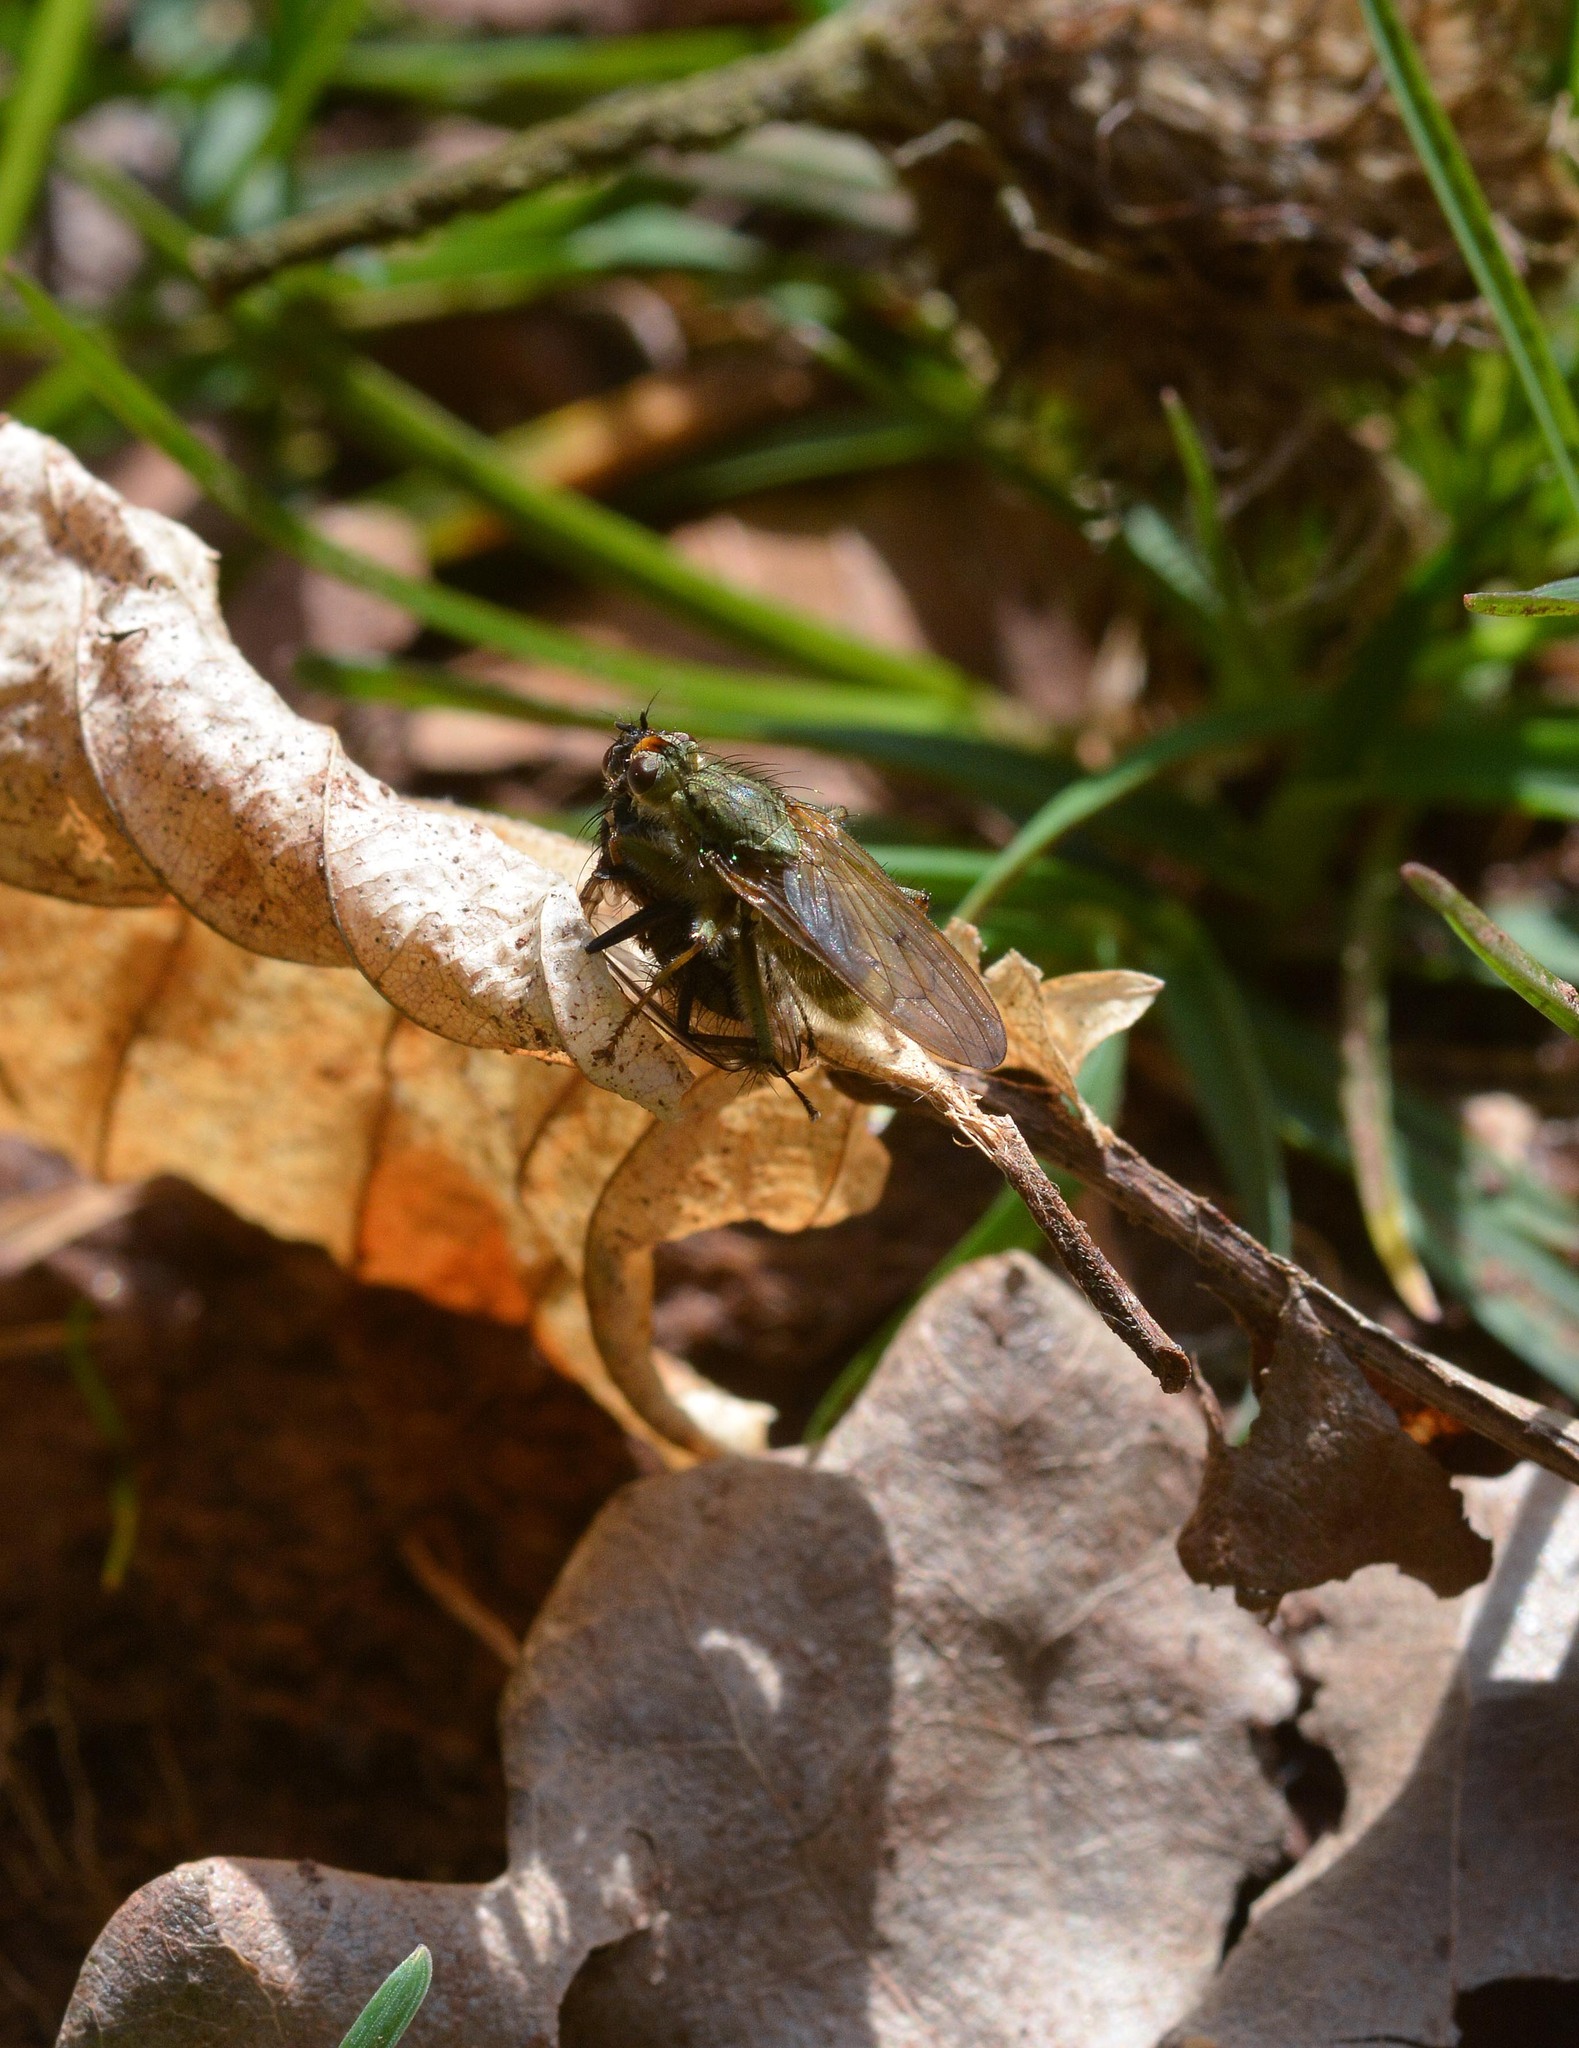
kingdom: Animalia
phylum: Arthropoda
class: Insecta
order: Diptera
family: Scathophagidae
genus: Scathophaga
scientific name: Scathophaga stercoraria
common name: Yellow dung fly
